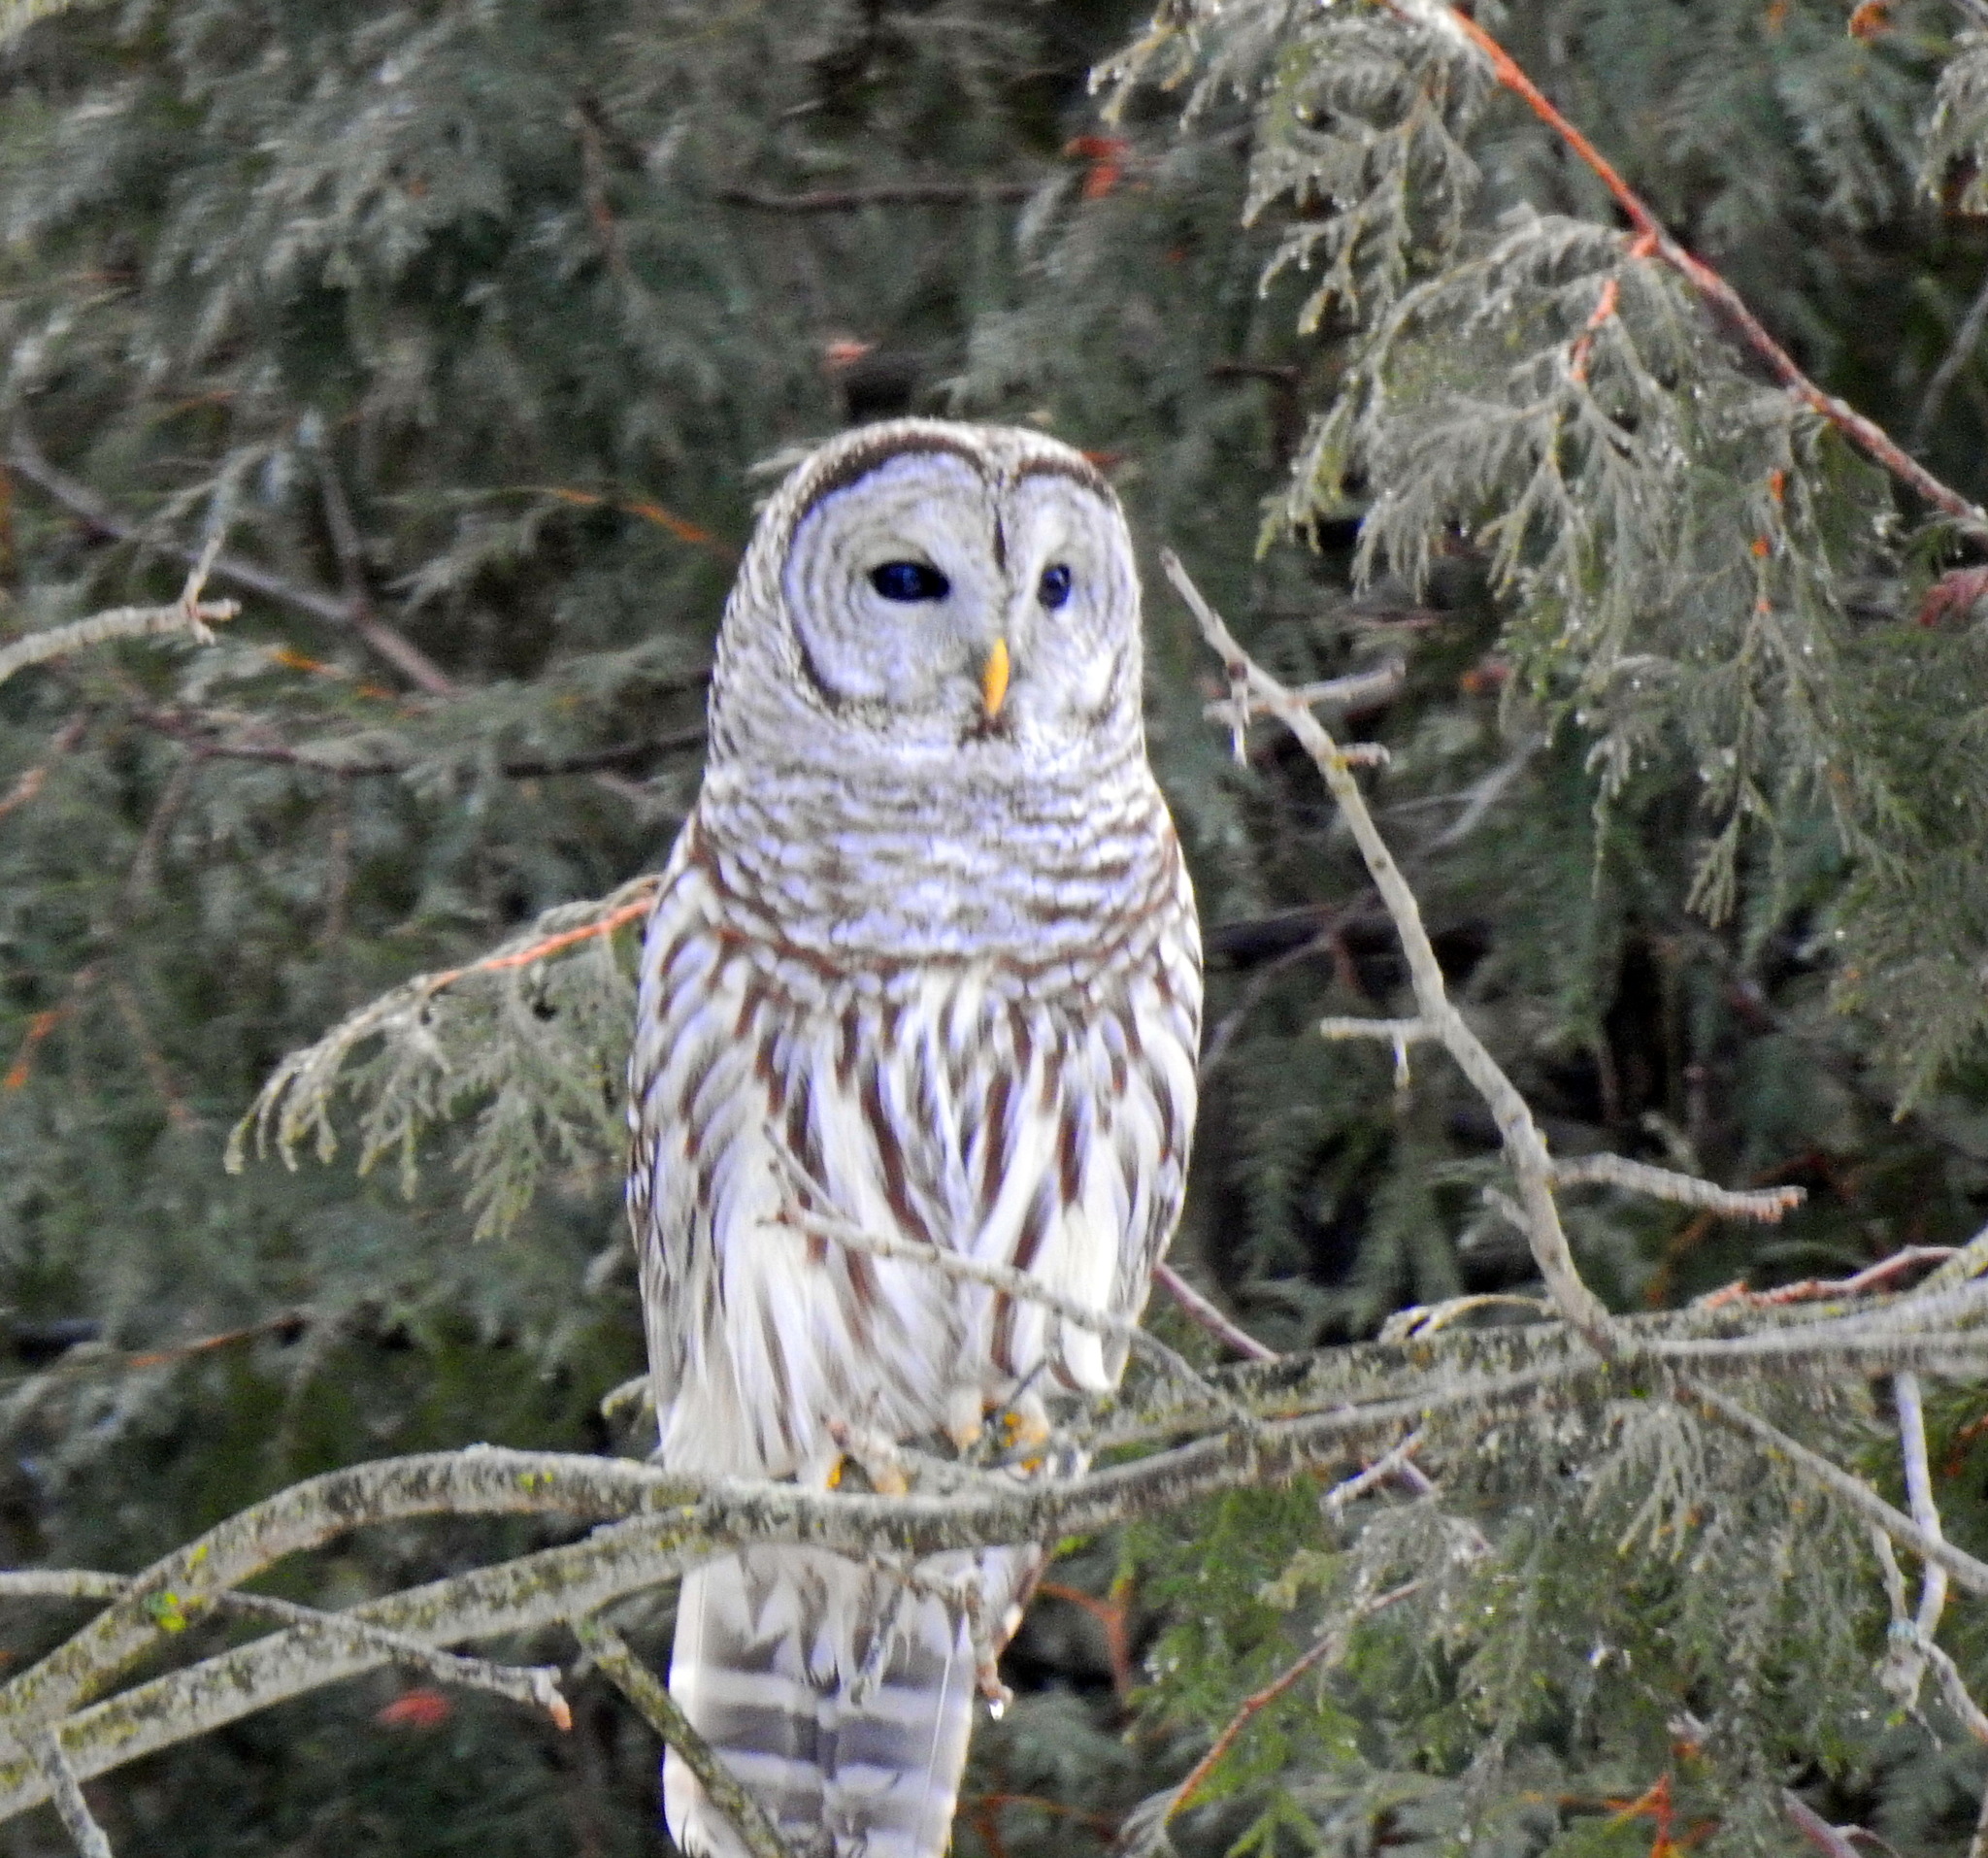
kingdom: Animalia
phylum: Chordata
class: Aves
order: Strigiformes
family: Strigidae
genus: Strix
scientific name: Strix varia
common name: Barred owl
